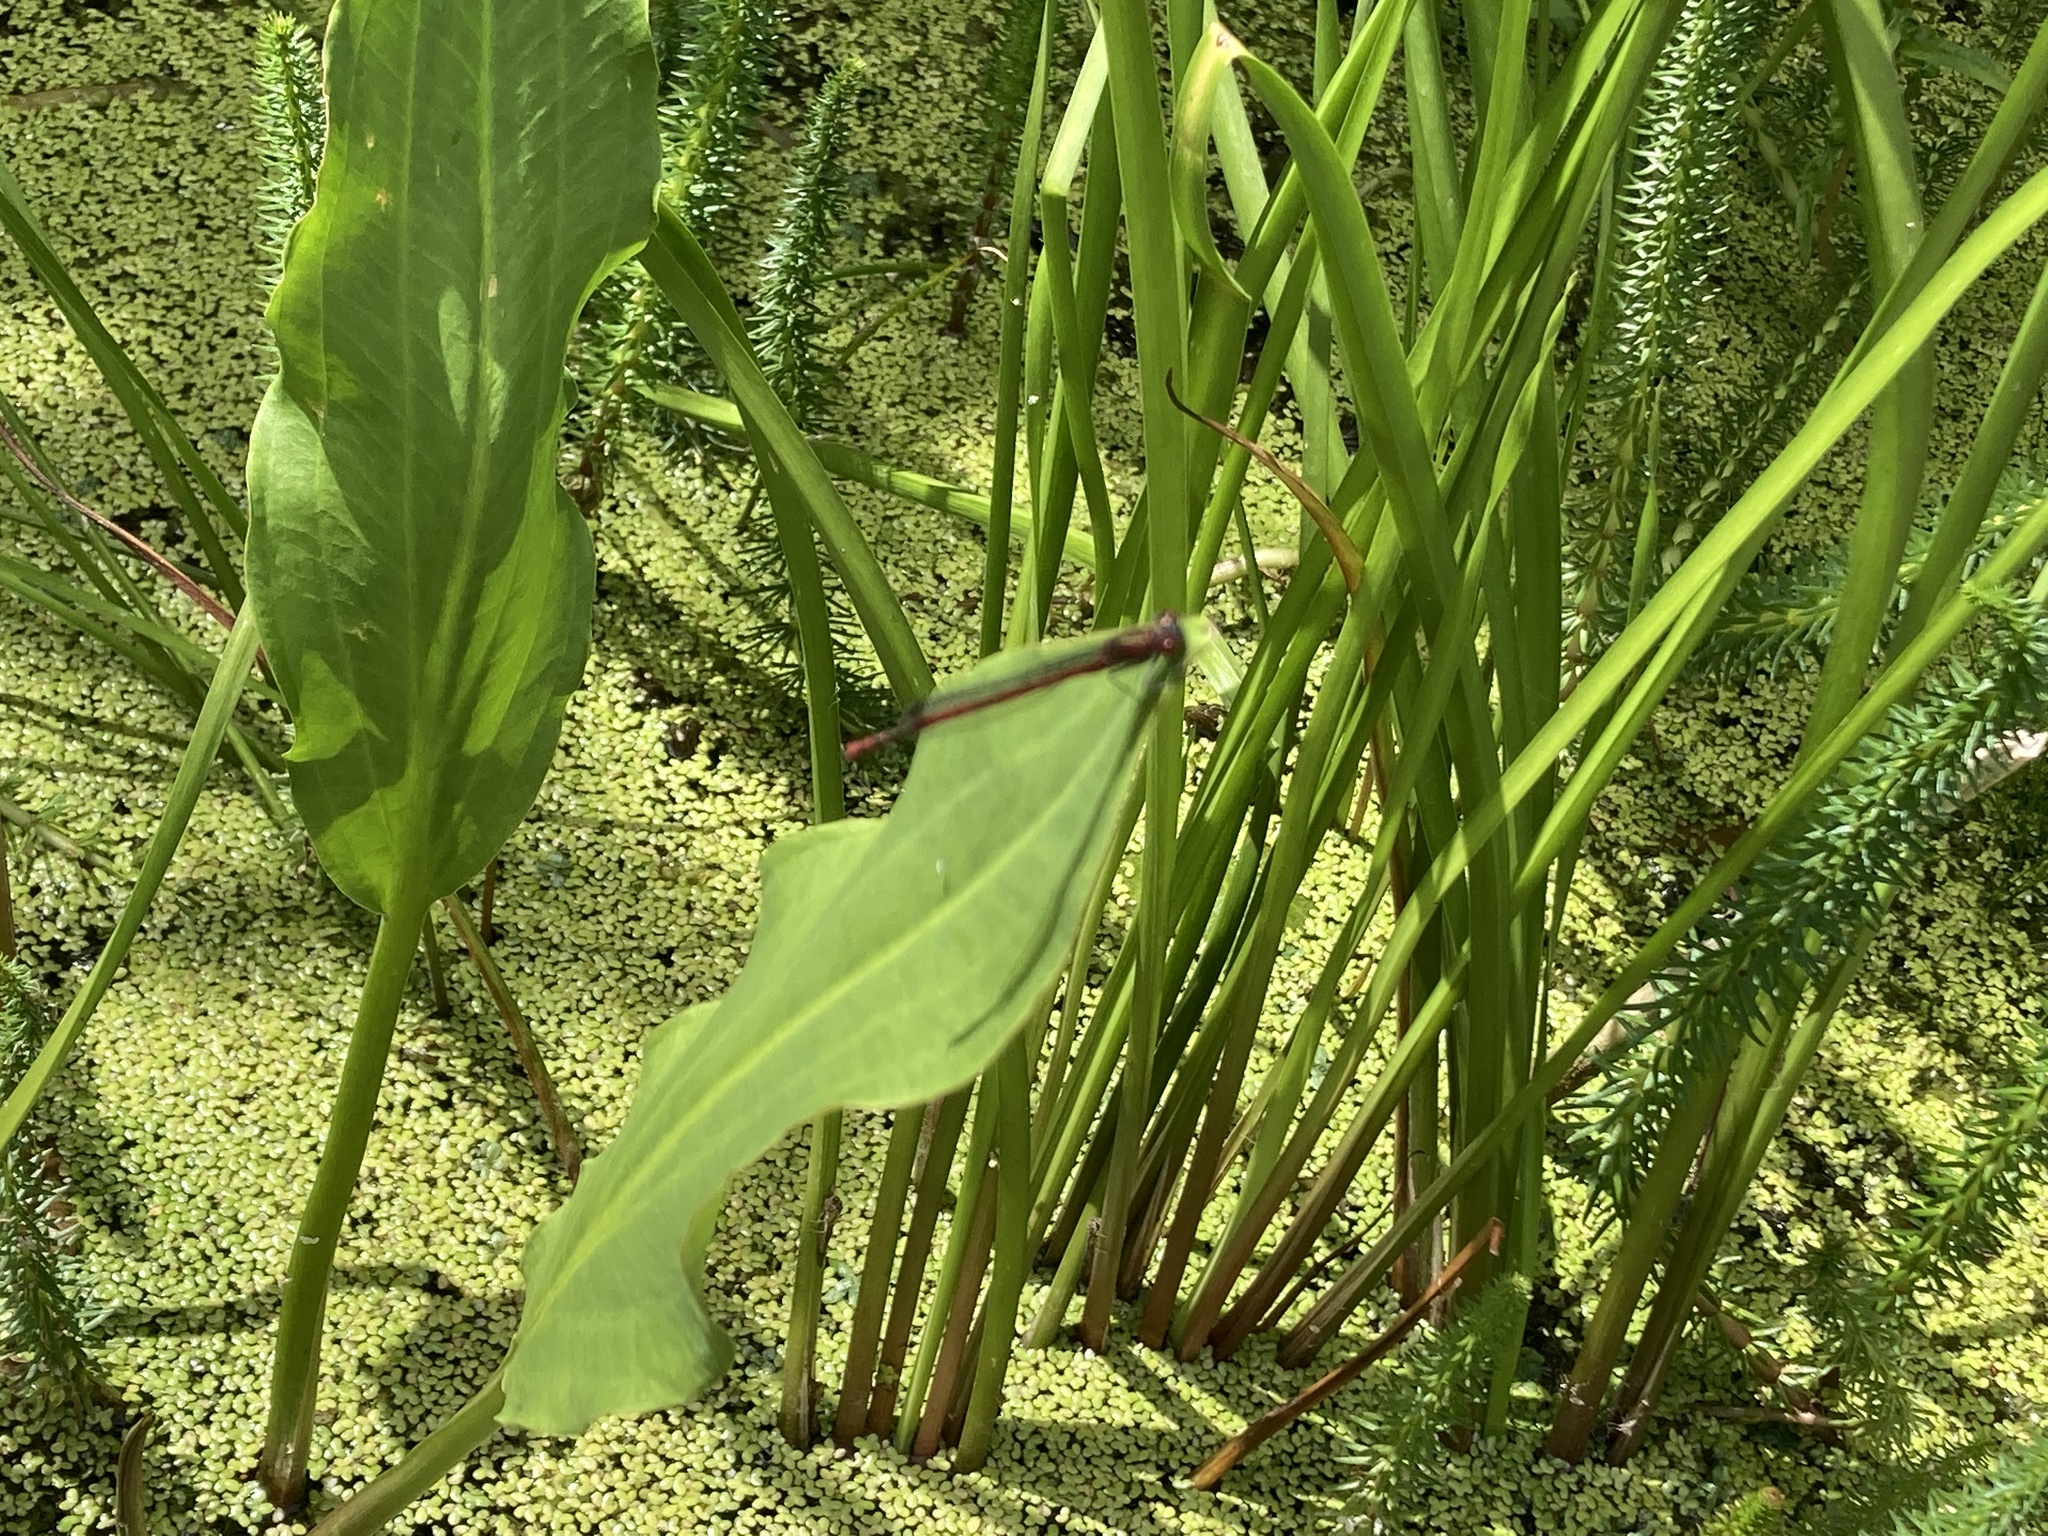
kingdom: Animalia
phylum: Arthropoda
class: Insecta
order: Odonata
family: Coenagrionidae
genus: Pyrrhosoma
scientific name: Pyrrhosoma nymphula
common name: Large red damsel
